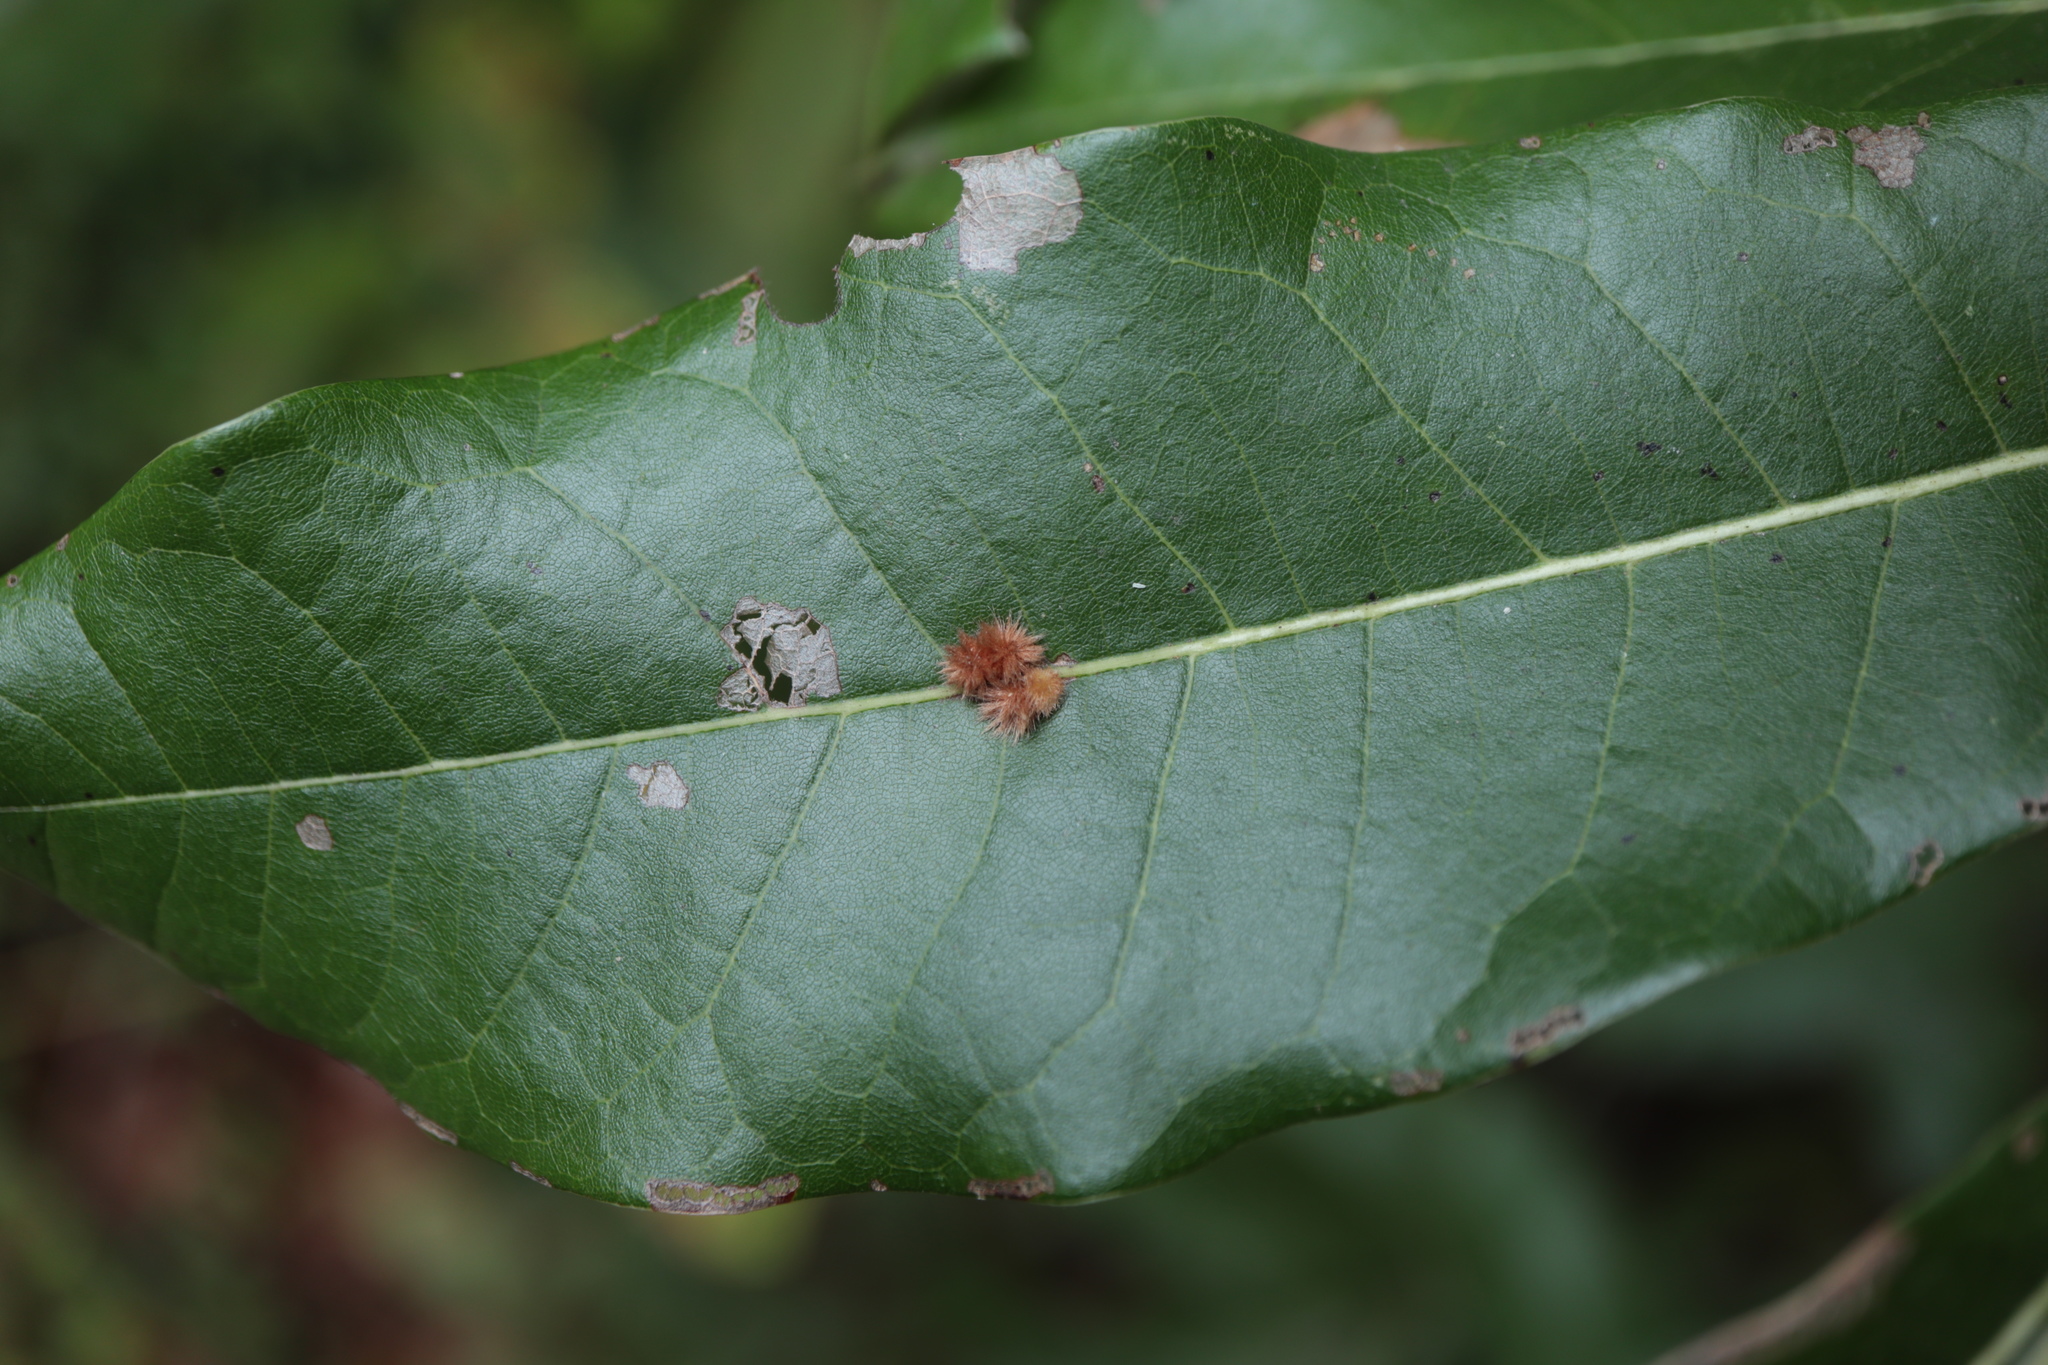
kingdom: Animalia
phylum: Arthropoda
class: Insecta
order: Hymenoptera
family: Cynipidae
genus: Callirhytis
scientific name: Callirhytis
